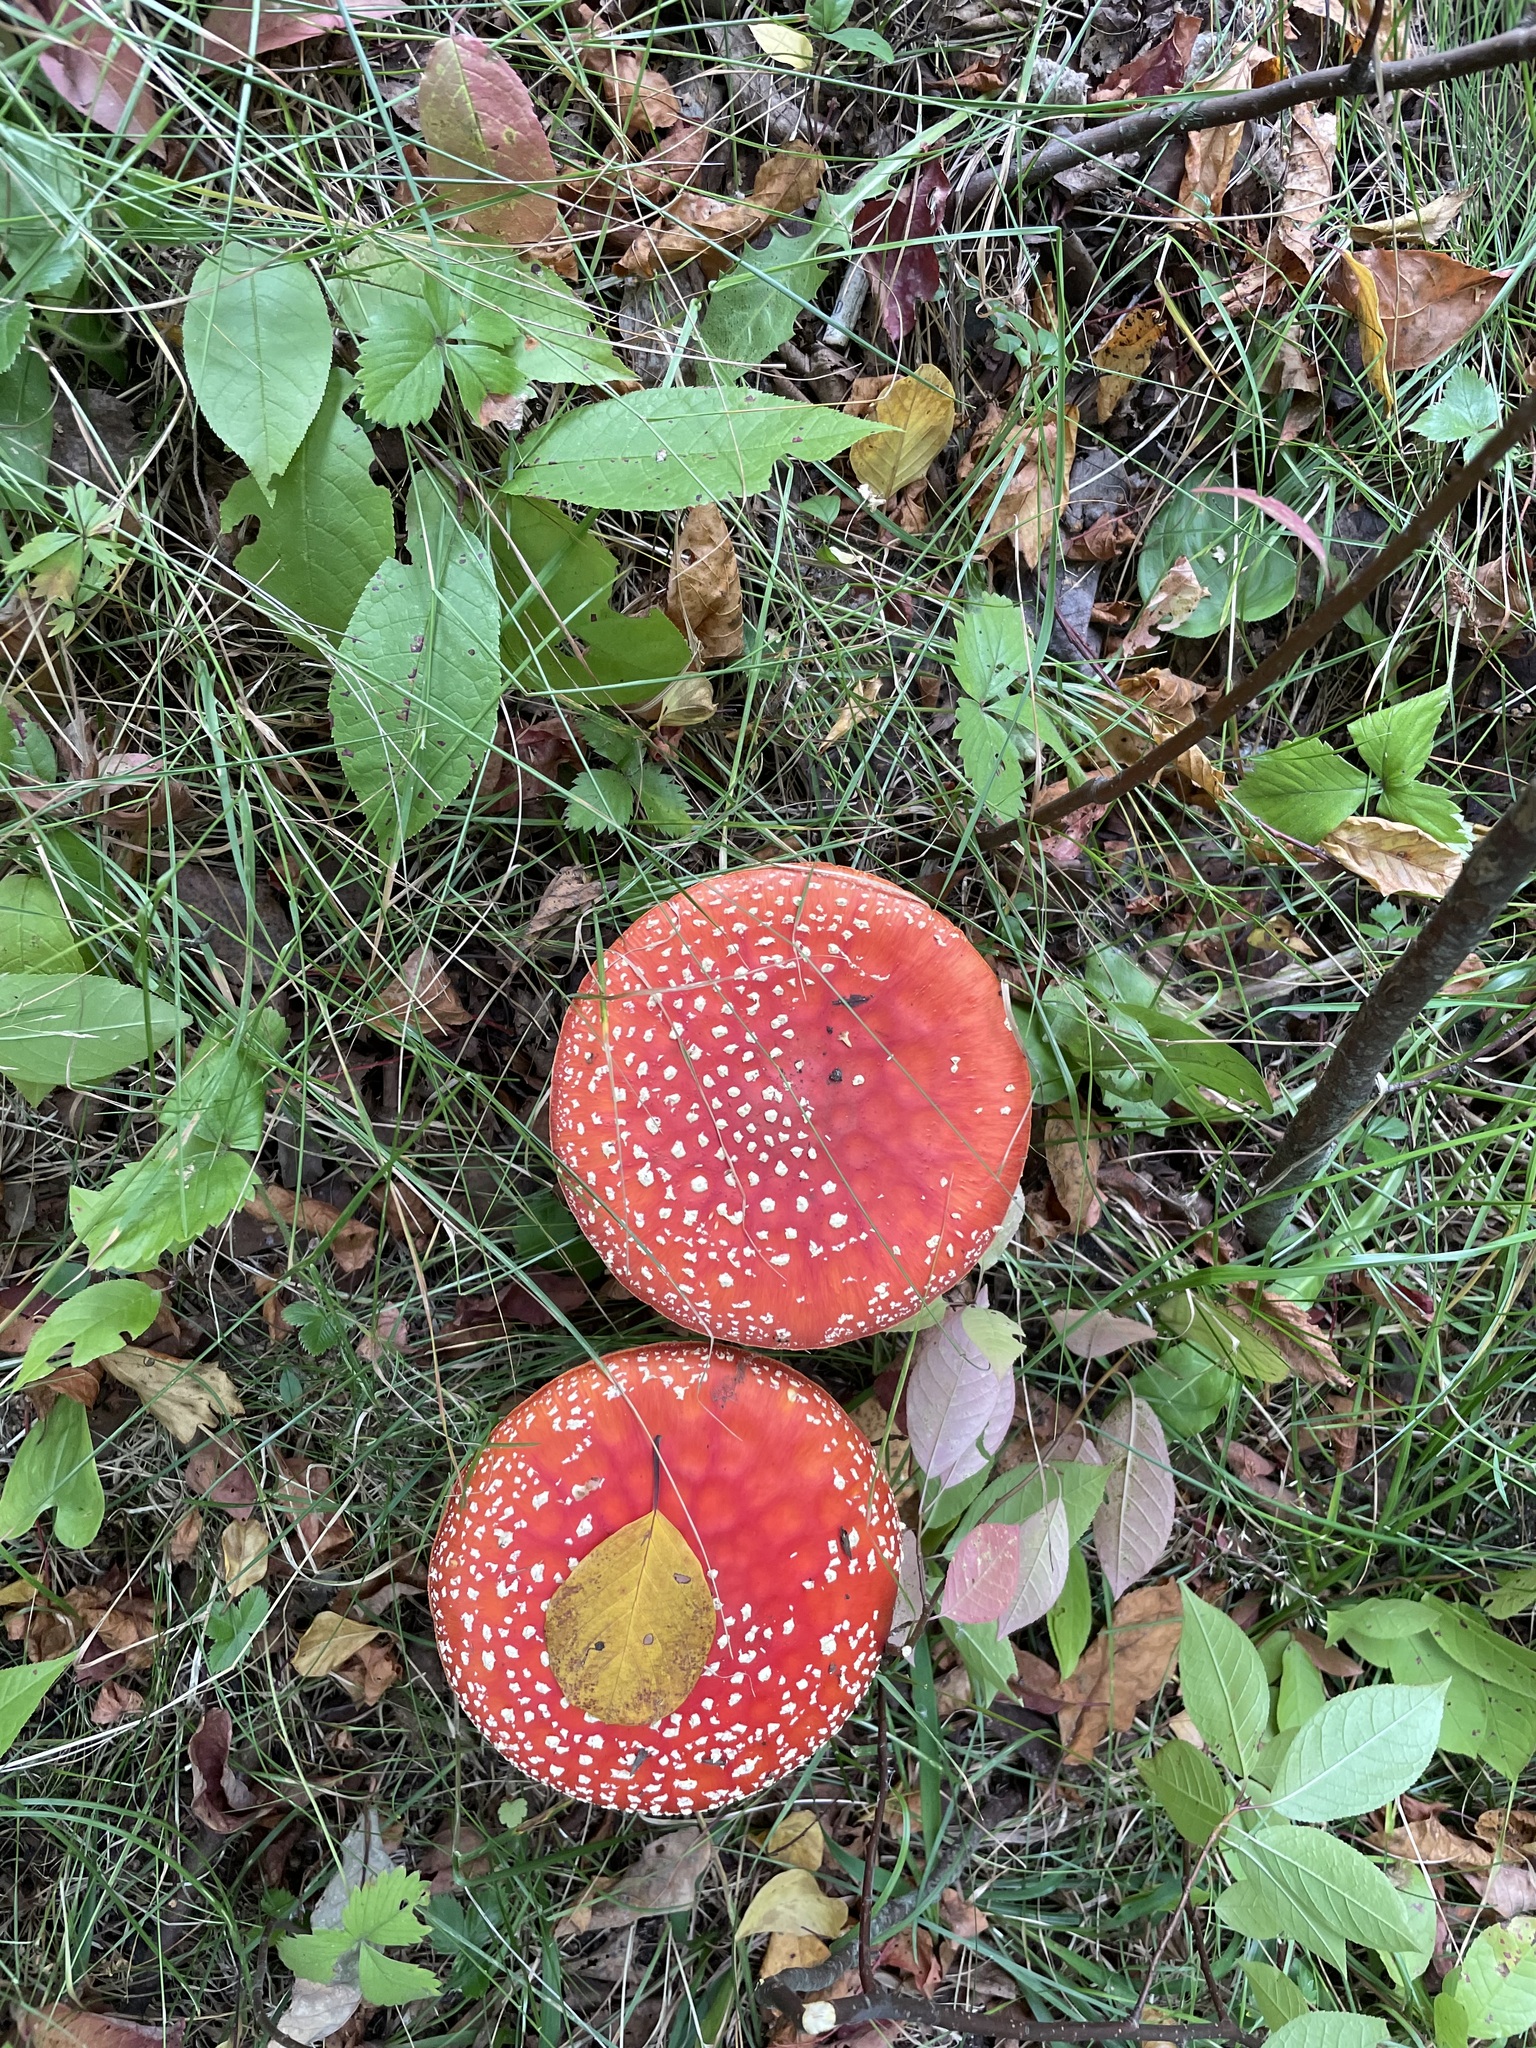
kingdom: Fungi
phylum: Basidiomycota
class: Agaricomycetes
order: Agaricales
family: Amanitaceae
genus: Amanita
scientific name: Amanita muscaria
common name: Fly agaric
